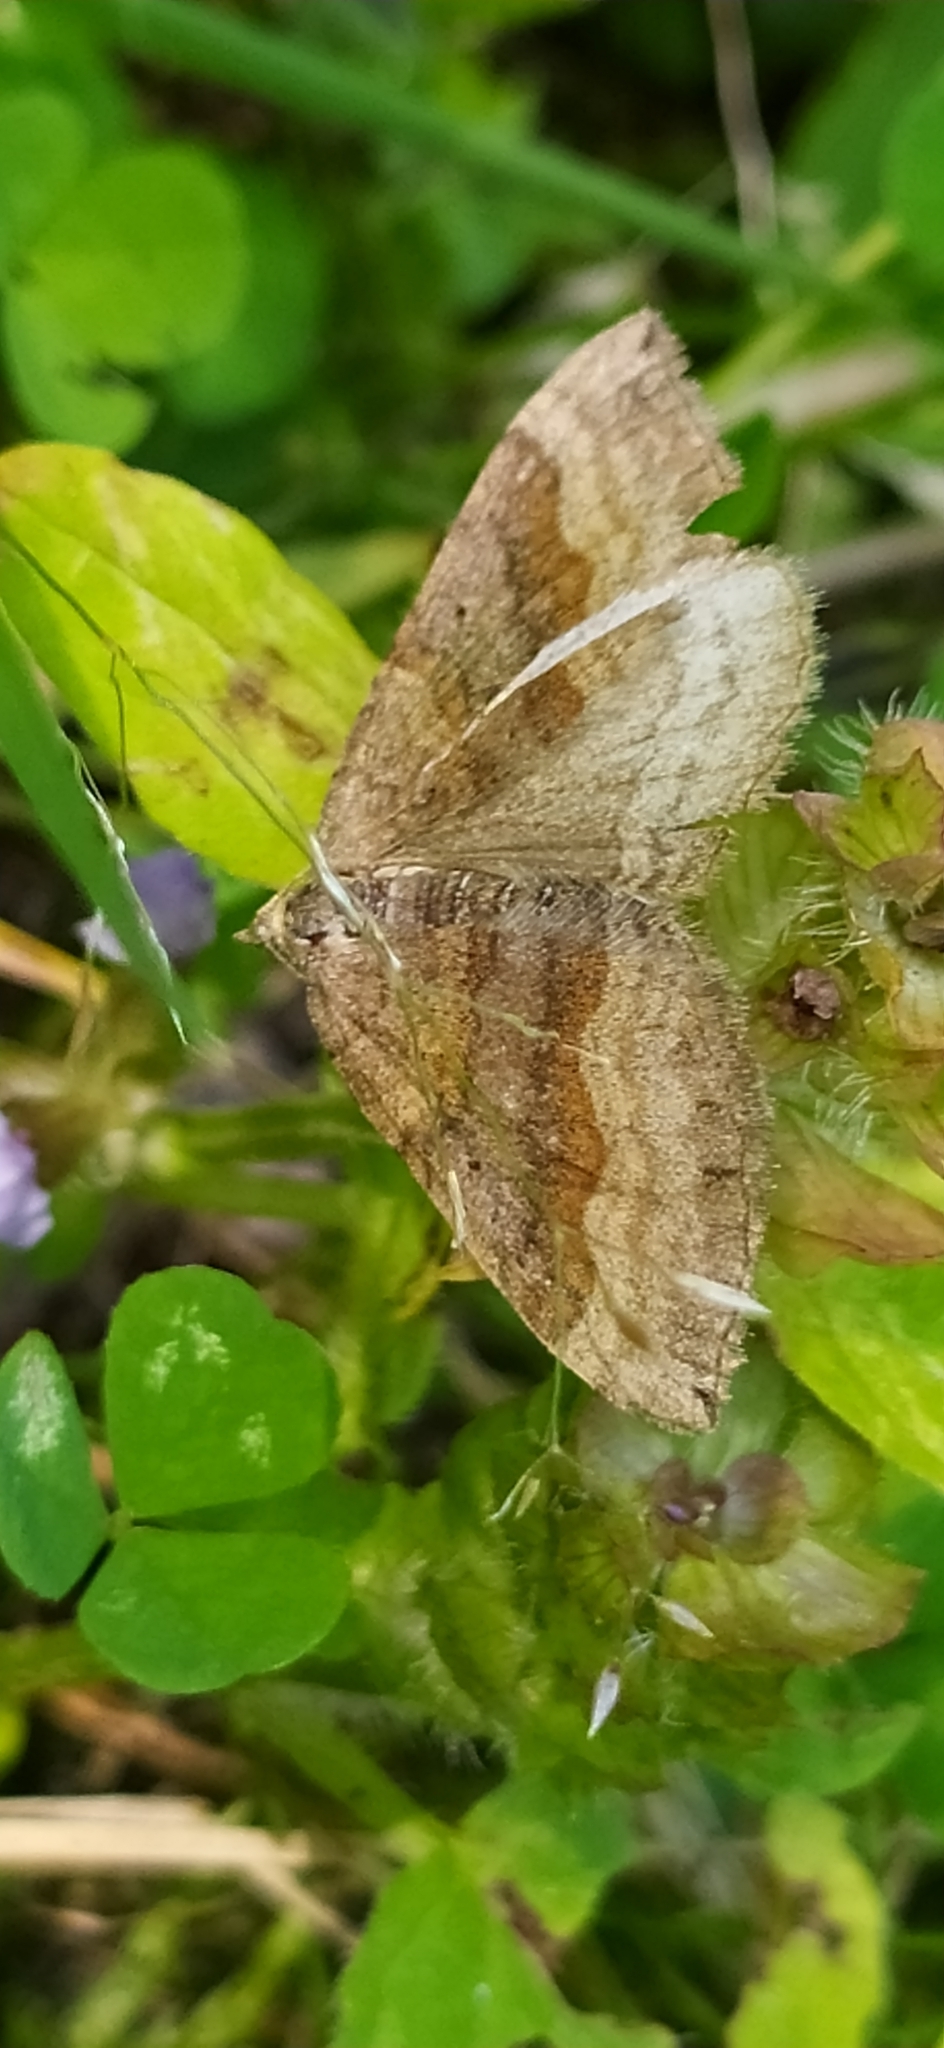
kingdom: Animalia
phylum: Arthropoda
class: Insecta
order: Lepidoptera
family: Geometridae
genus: Scotopteryx
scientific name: Scotopteryx chenopodiata
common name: Shaded broad-bar
